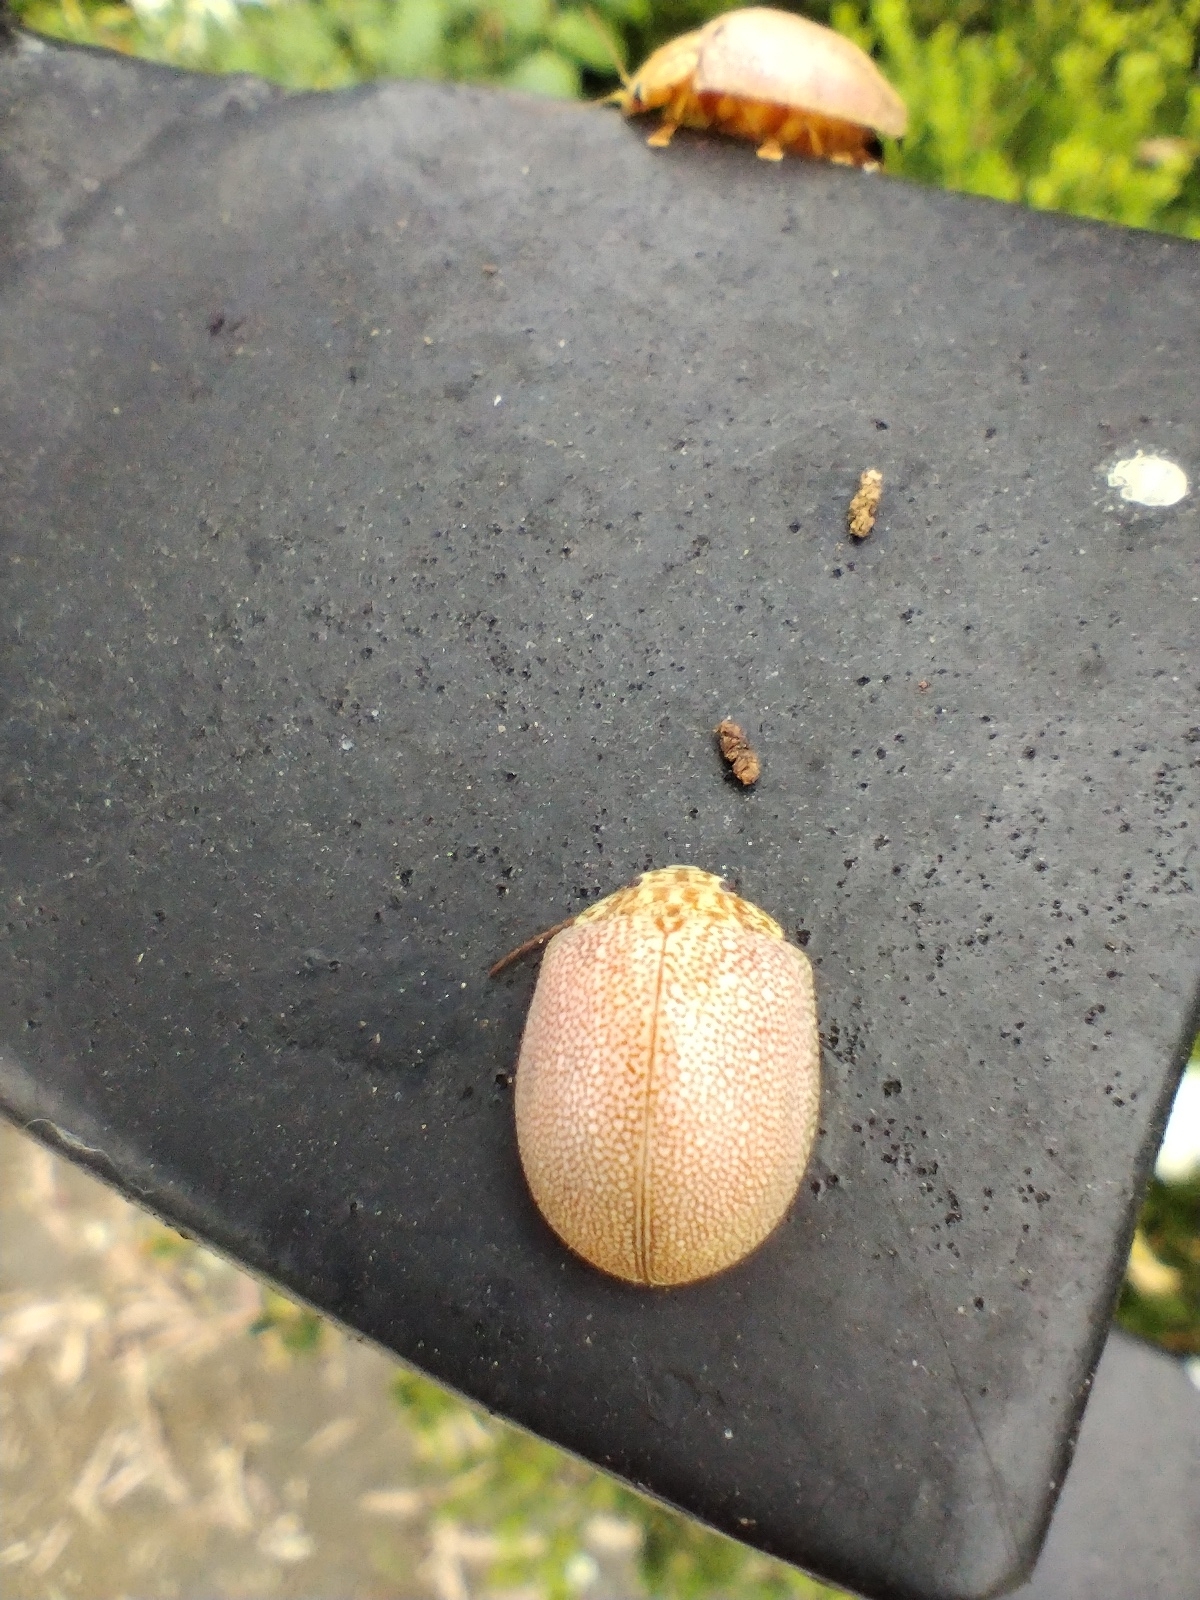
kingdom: Animalia
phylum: Arthropoda
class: Insecta
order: Coleoptera
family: Chrysomelidae
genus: Paropsis
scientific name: Paropsis
